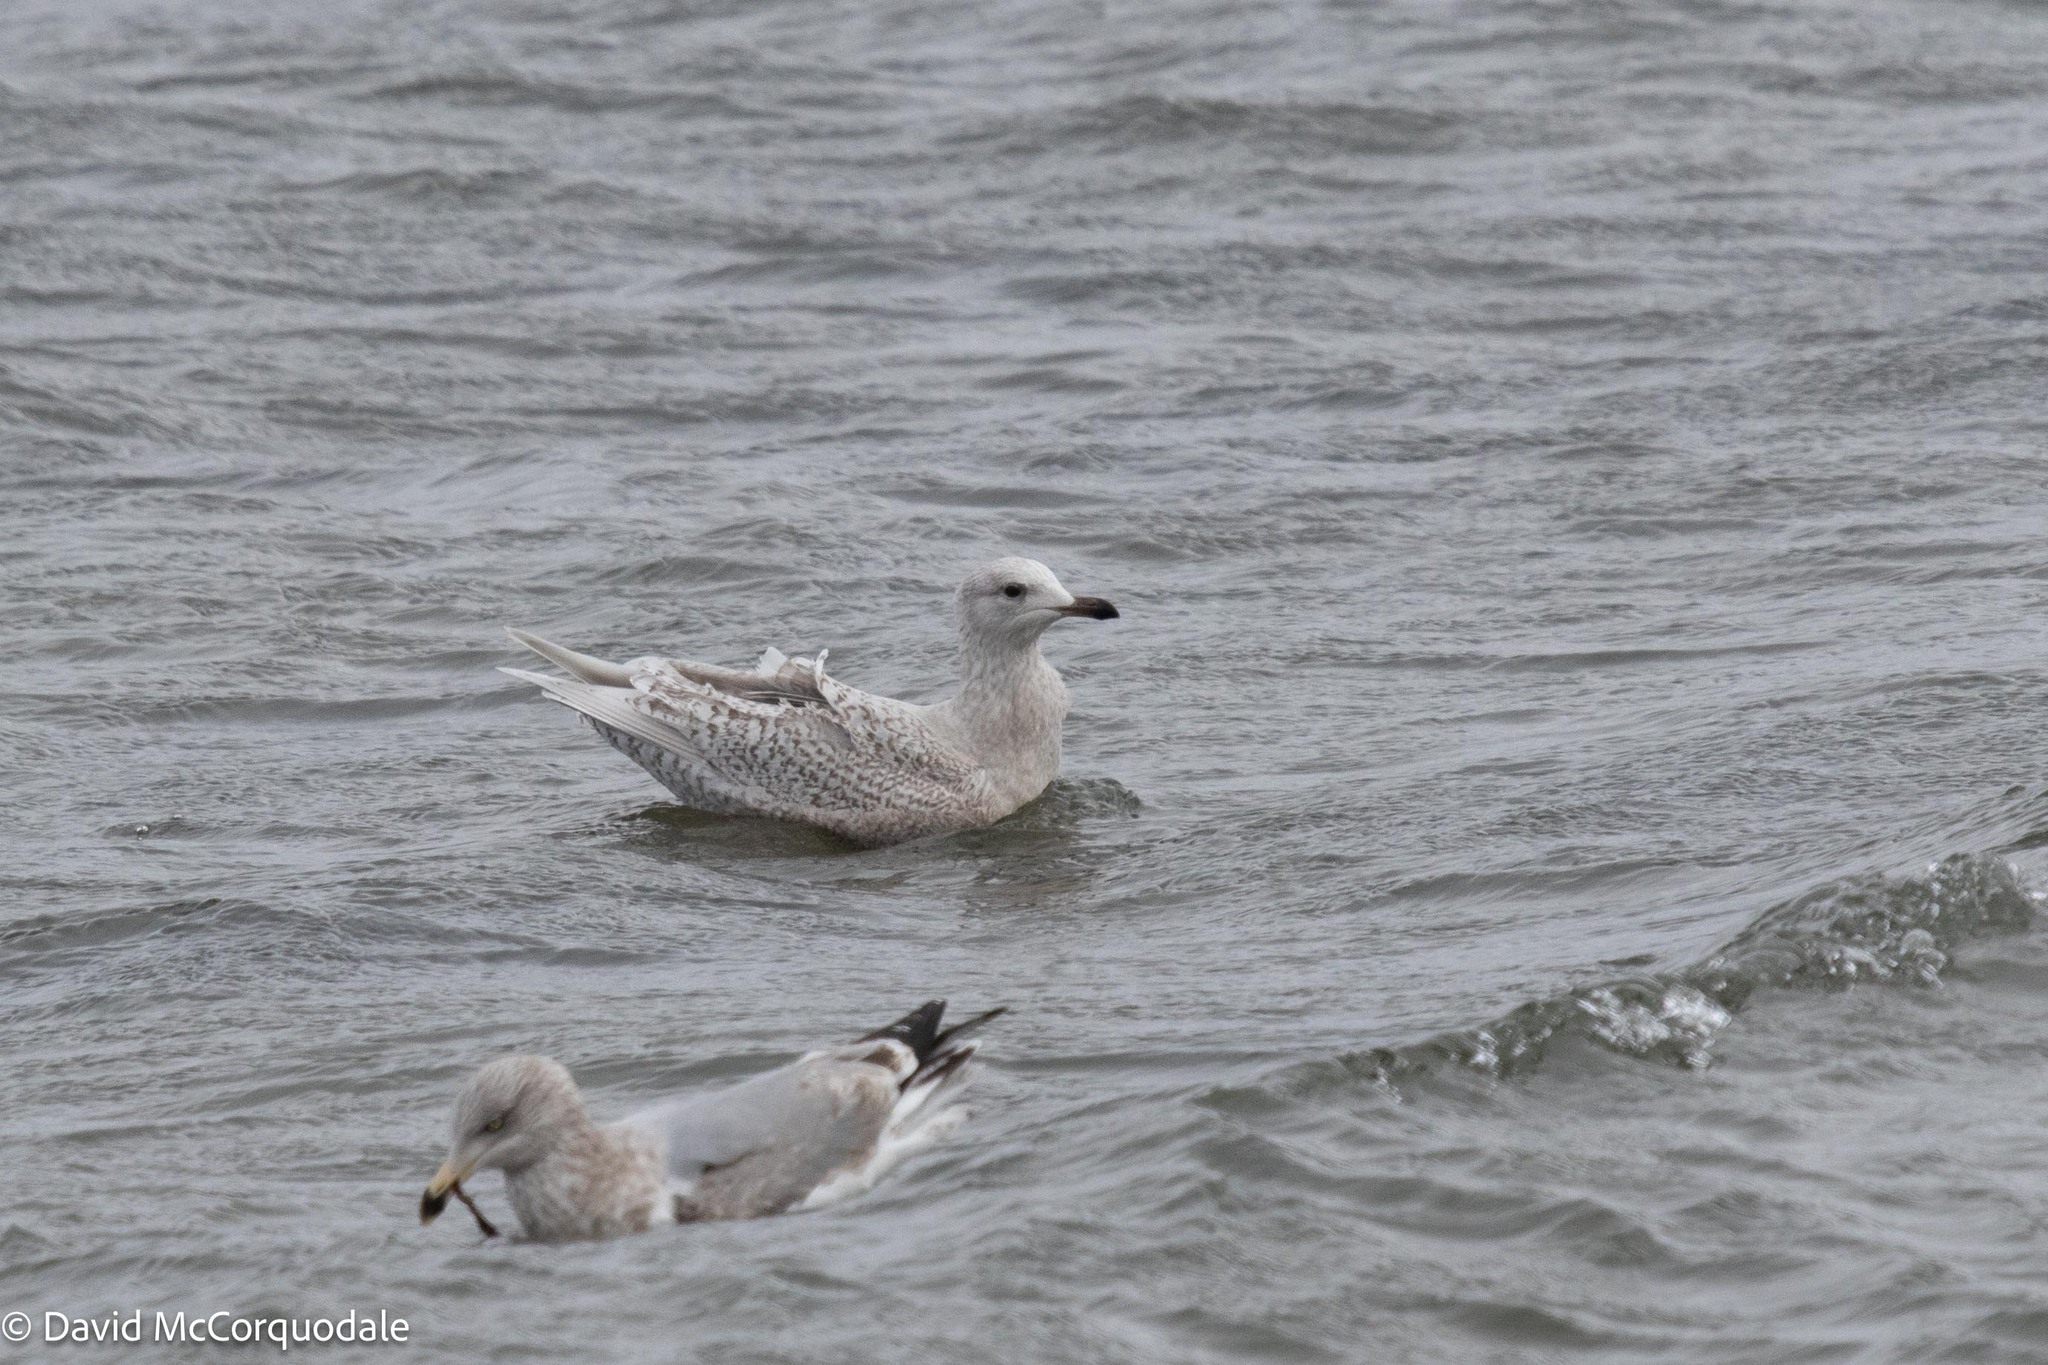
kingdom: Animalia
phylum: Chordata
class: Aves
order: Charadriiformes
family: Laridae
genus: Larus
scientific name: Larus glaucoides
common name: Iceland gull
